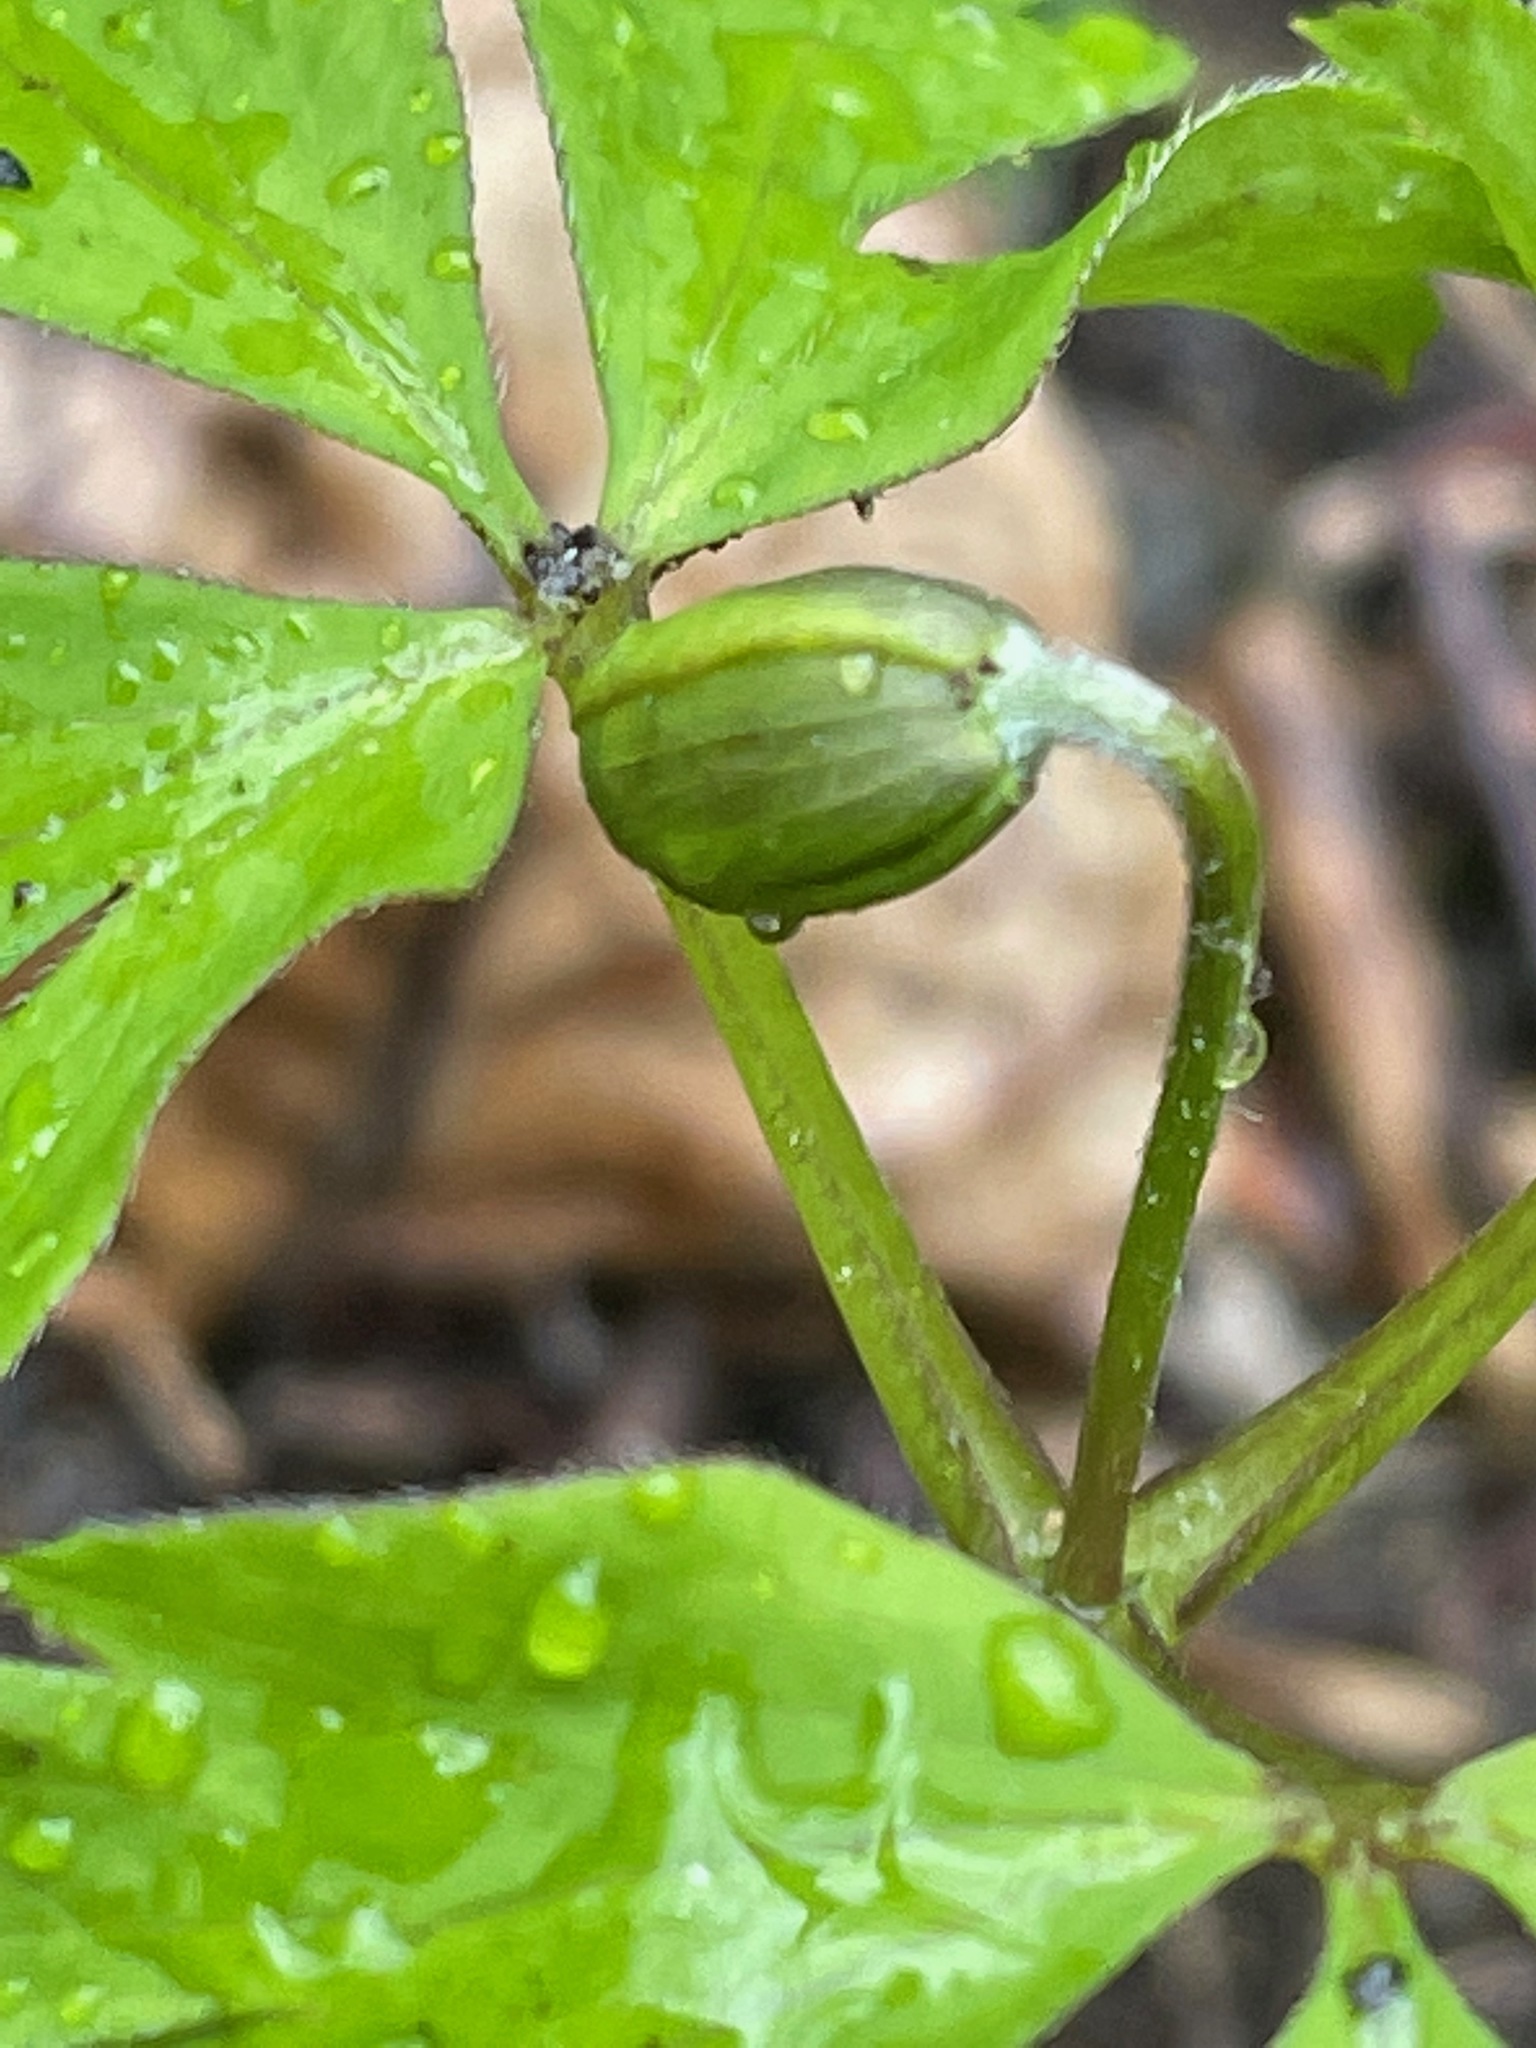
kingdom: Plantae
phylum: Tracheophyta
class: Magnoliopsida
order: Ranunculales
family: Ranunculaceae
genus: Anemone
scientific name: Anemone quinquefolia
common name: Wood anemone
